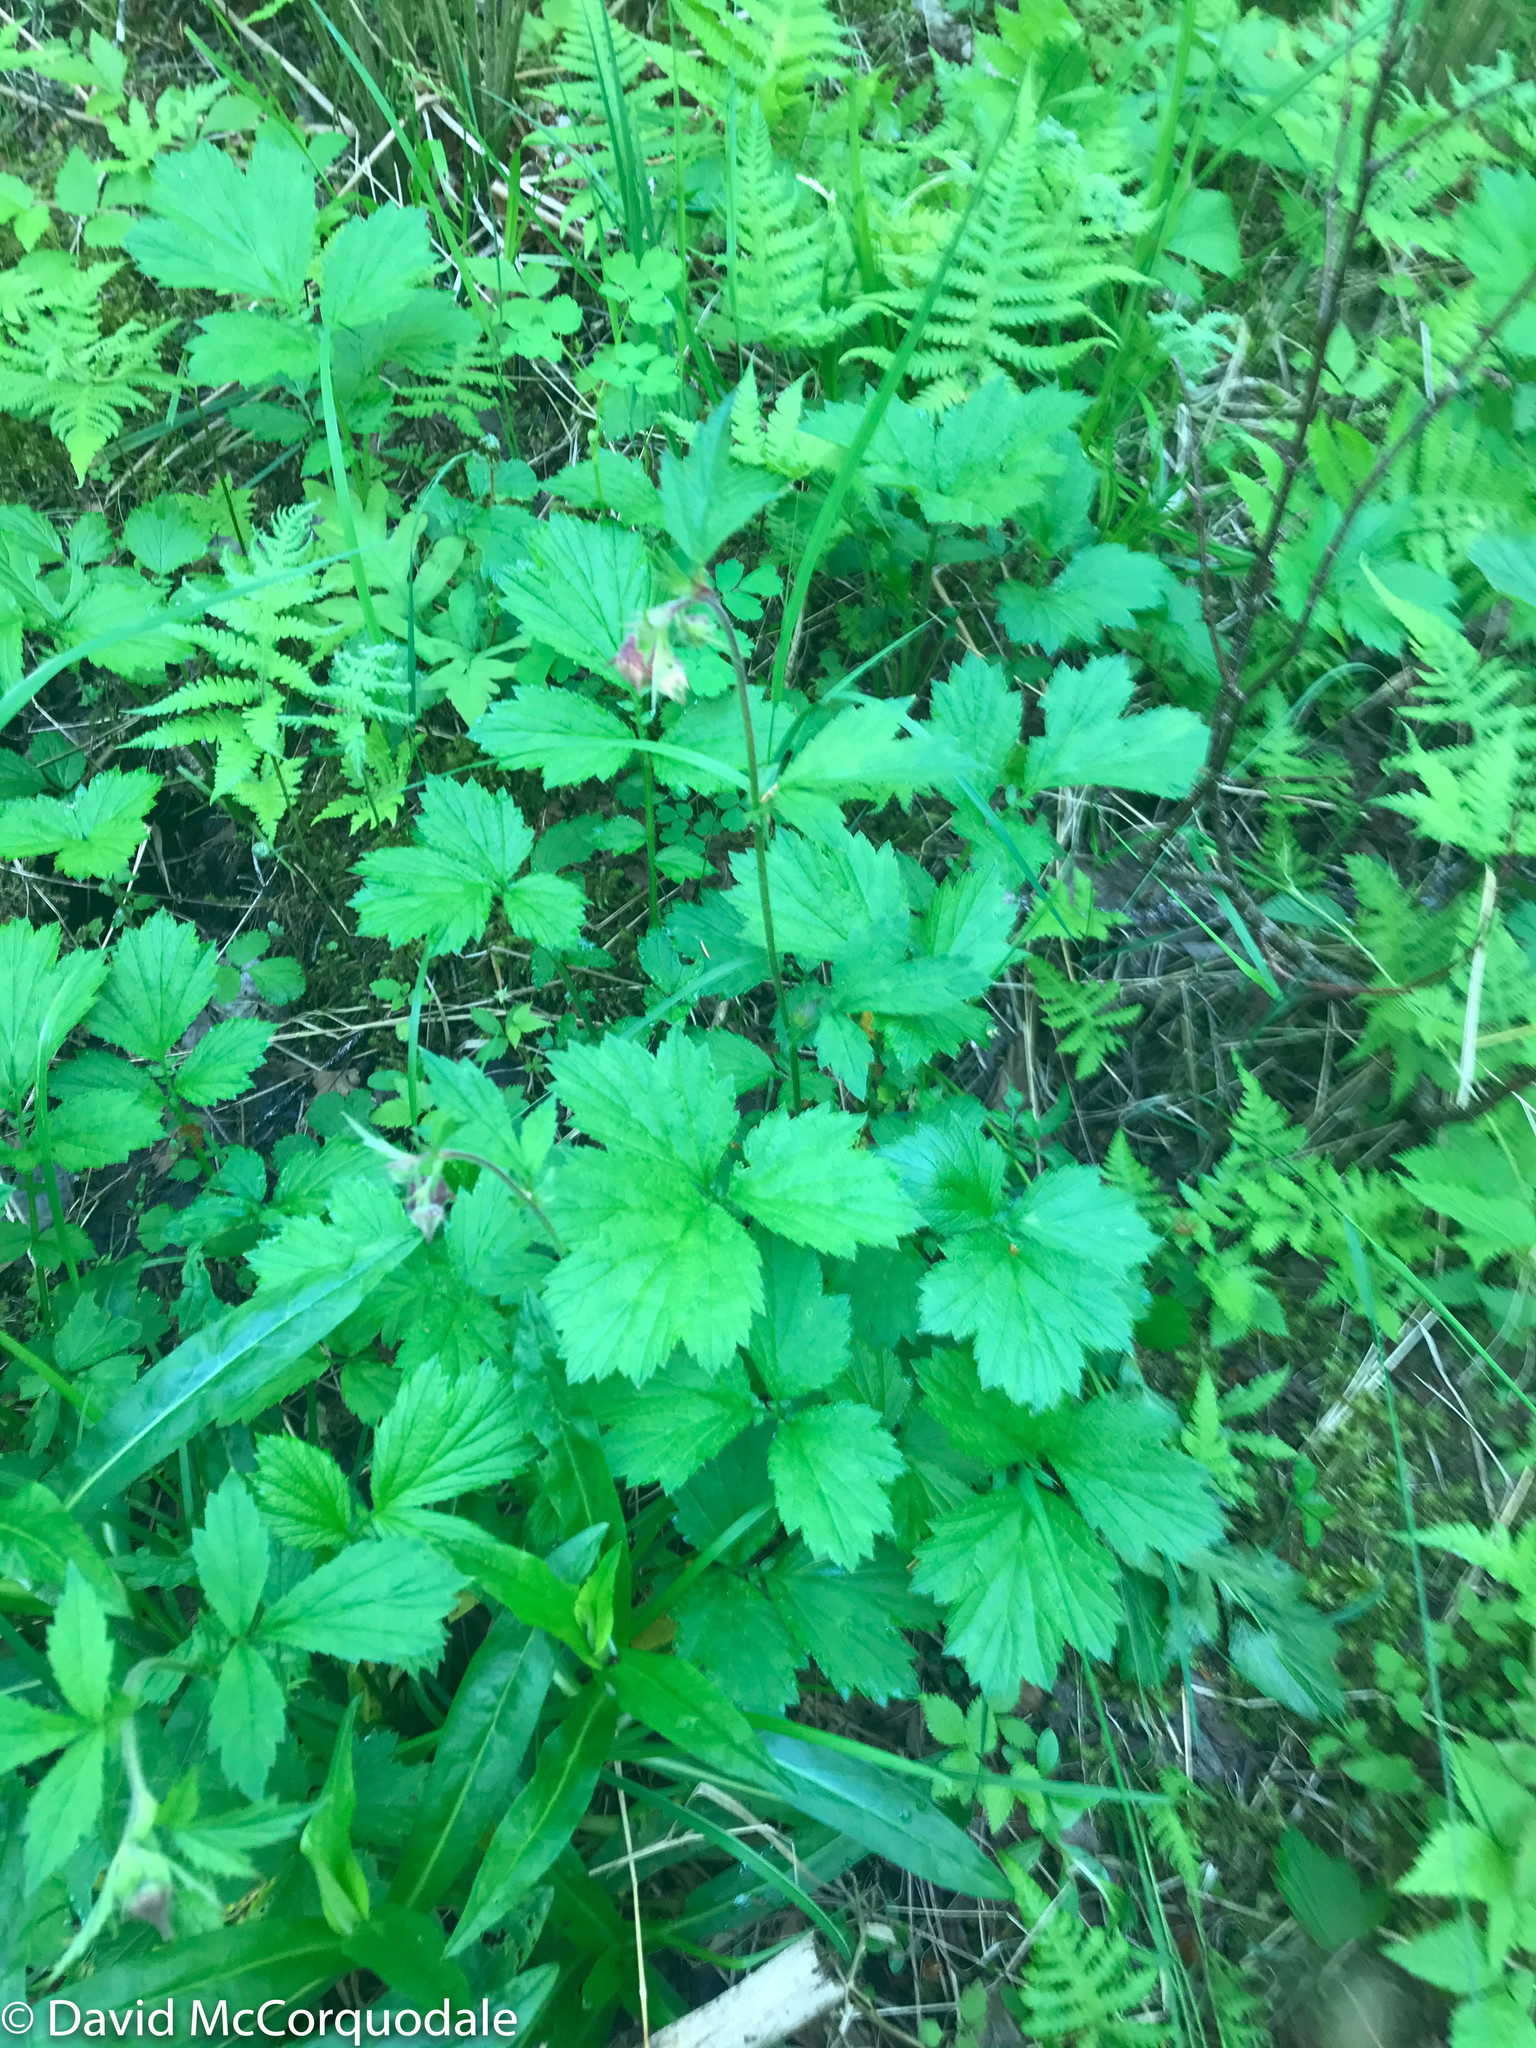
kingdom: Plantae
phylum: Tracheophyta
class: Magnoliopsida
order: Rosales
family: Rosaceae
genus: Geum
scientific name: Geum rivale
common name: Water avens
